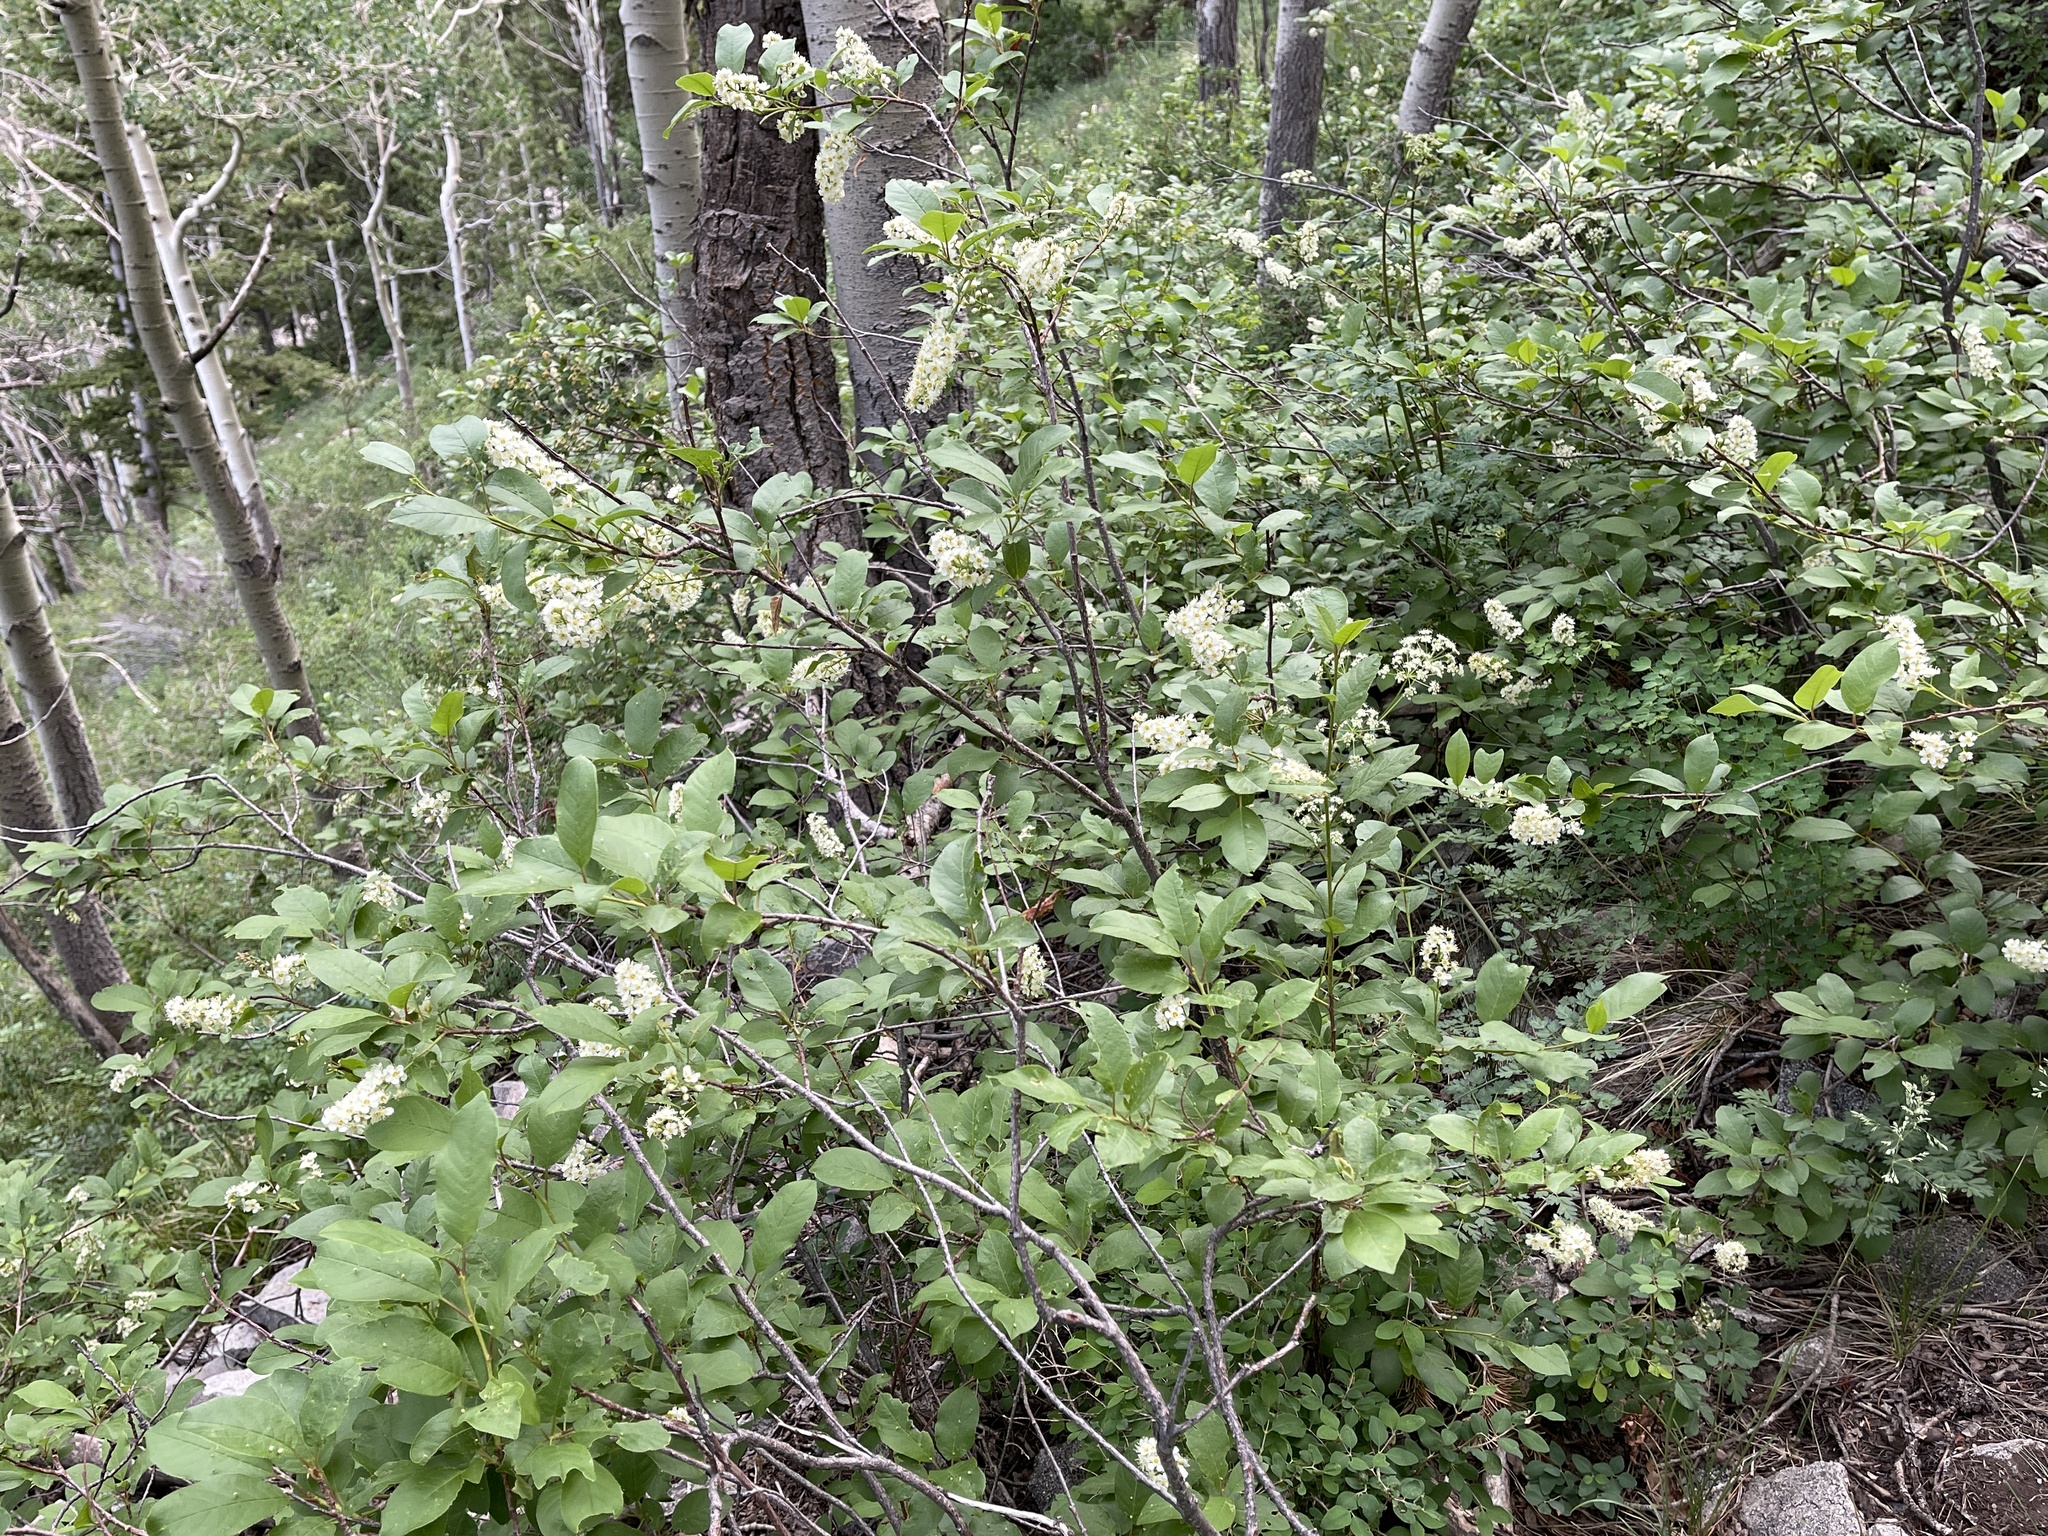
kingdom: Plantae
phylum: Tracheophyta
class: Magnoliopsida
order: Rosales
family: Rosaceae
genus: Prunus
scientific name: Prunus virginiana
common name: Chokecherry
